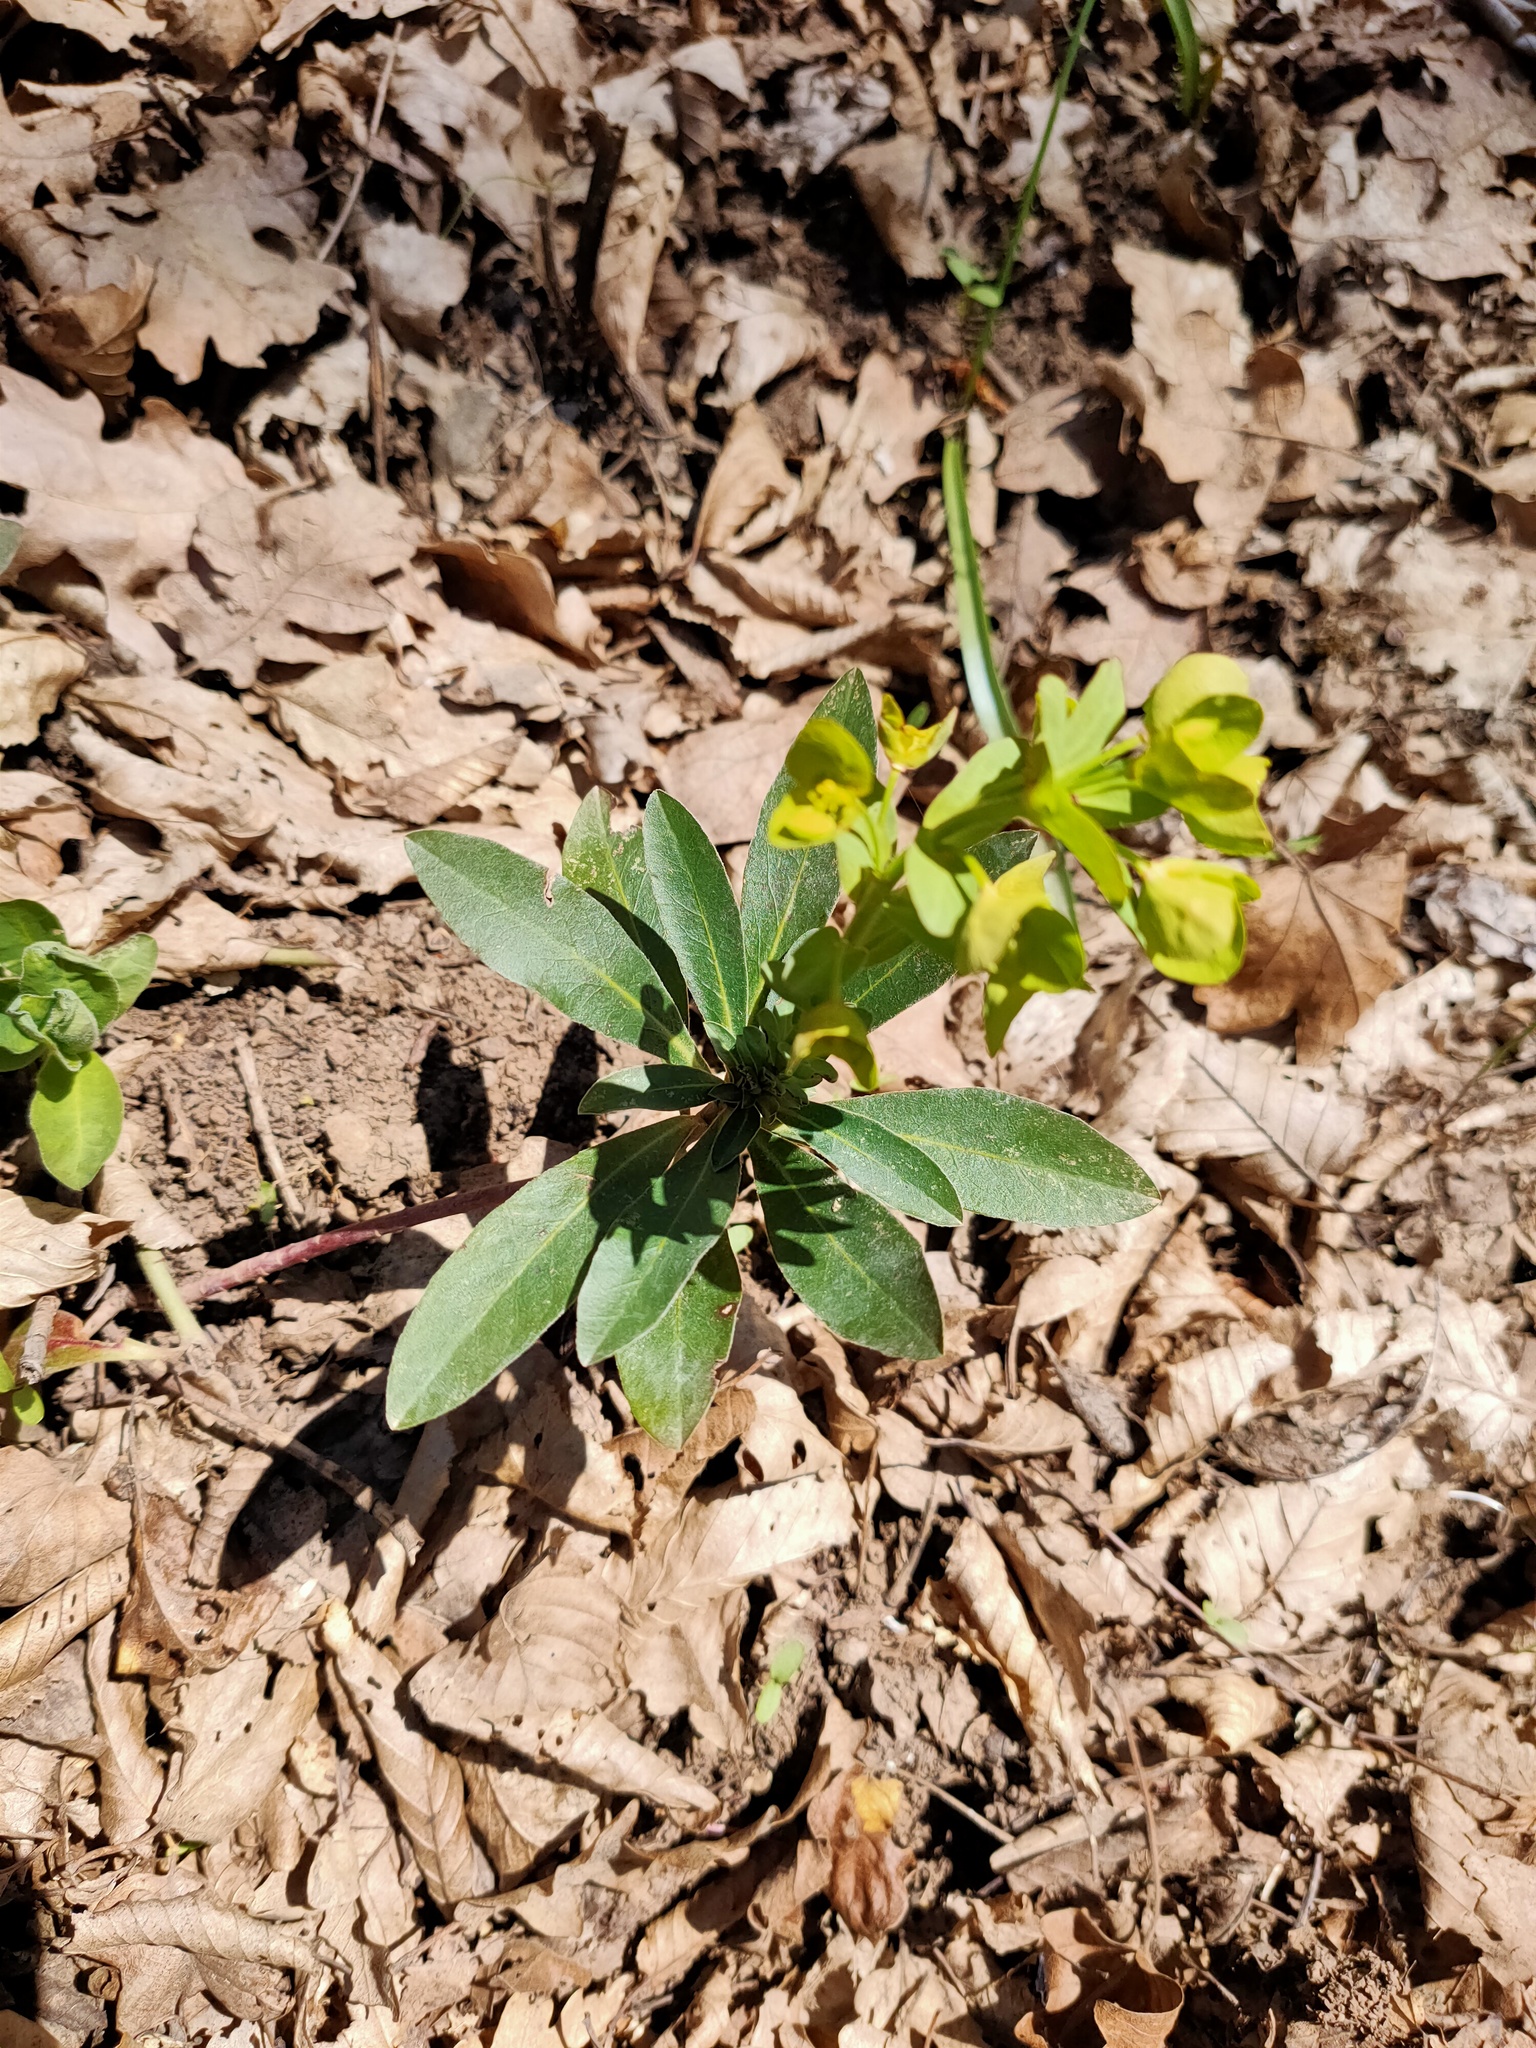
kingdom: Plantae
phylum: Tracheophyta
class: Magnoliopsida
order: Malpighiales
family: Euphorbiaceae
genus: Euphorbia
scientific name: Euphorbia amygdaloides
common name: Wood spurge
